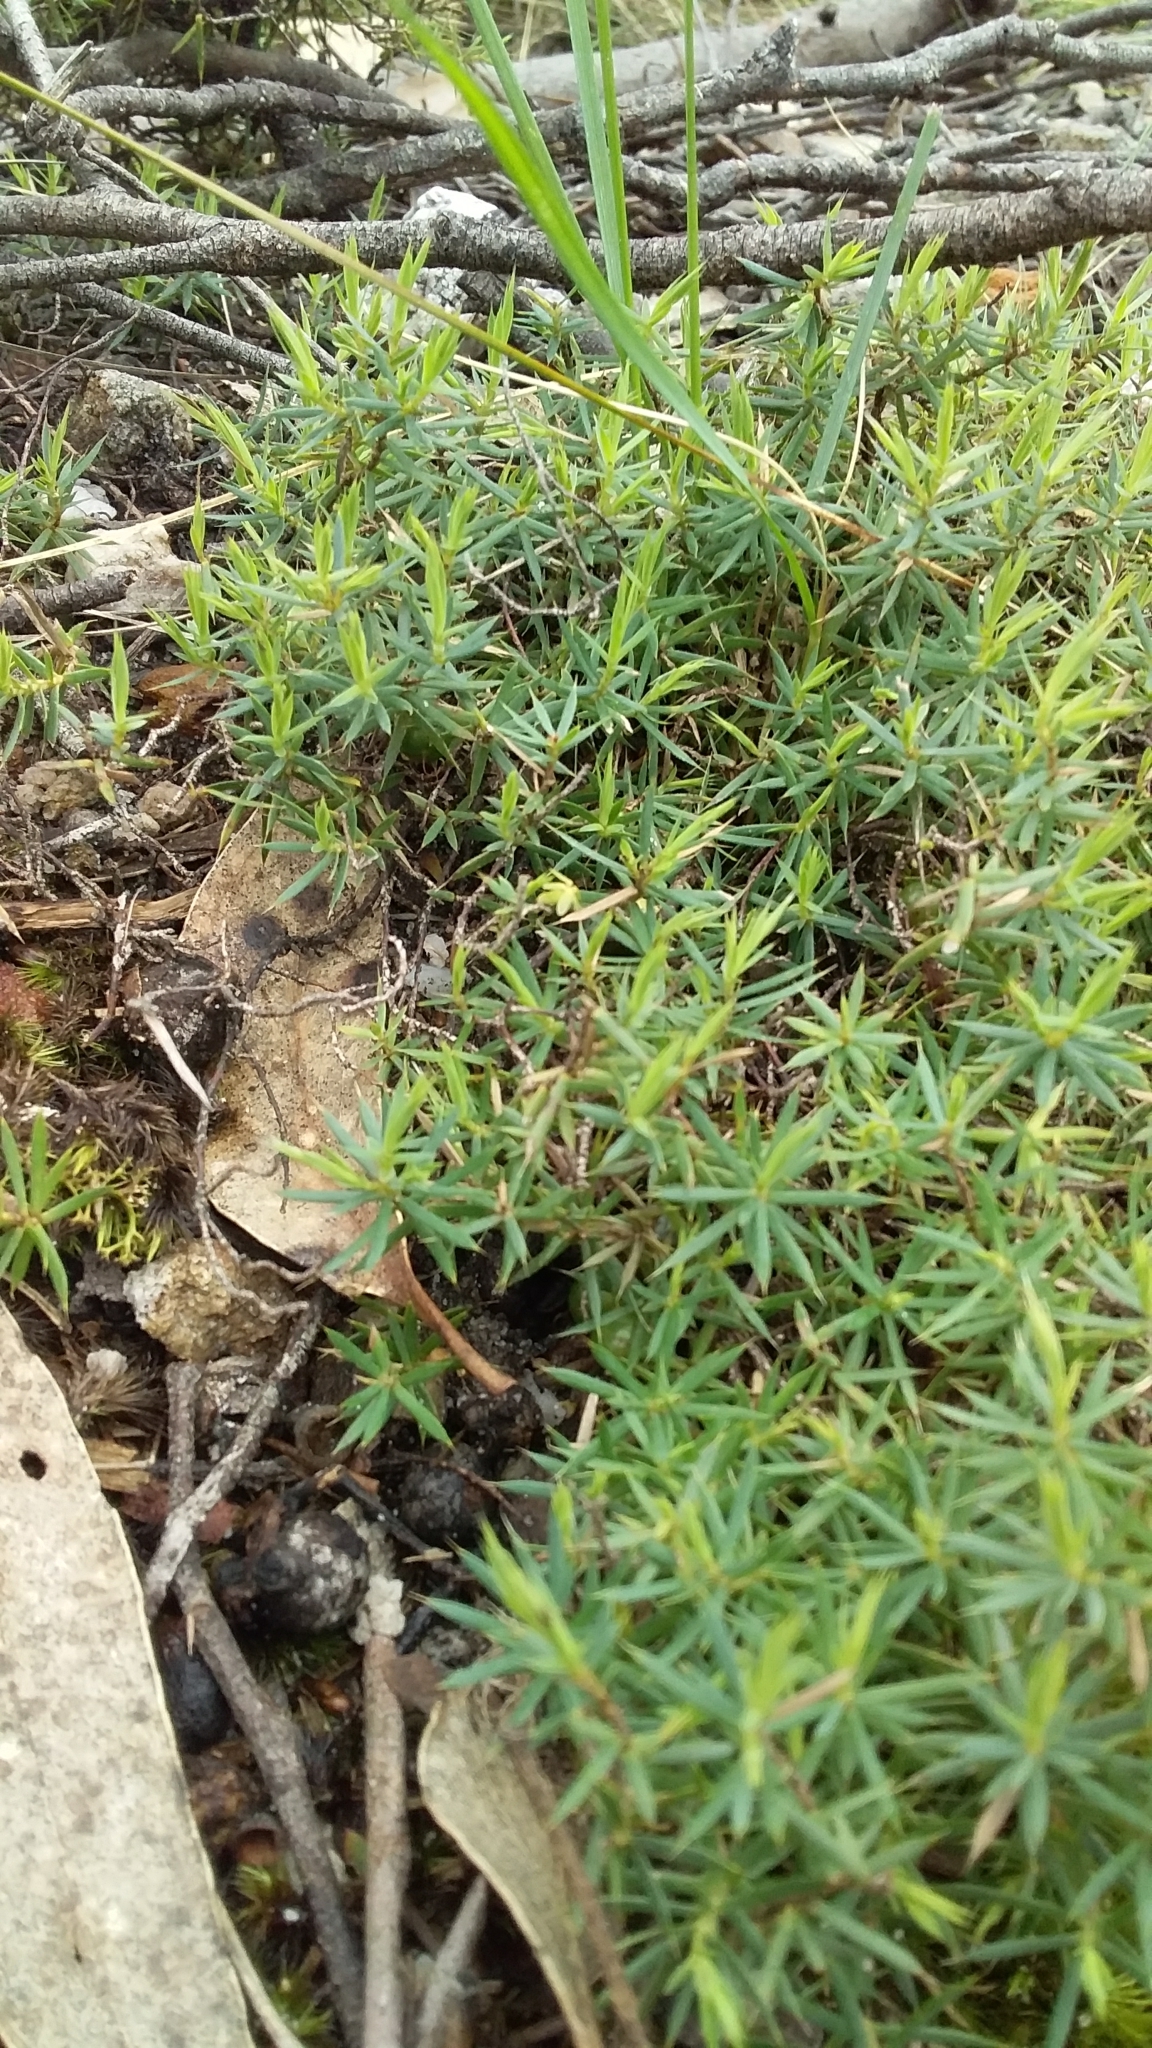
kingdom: Plantae
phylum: Tracheophyta
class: Magnoliopsida
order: Ericales
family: Ericaceae
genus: Styphelia
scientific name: Styphelia humifusa
